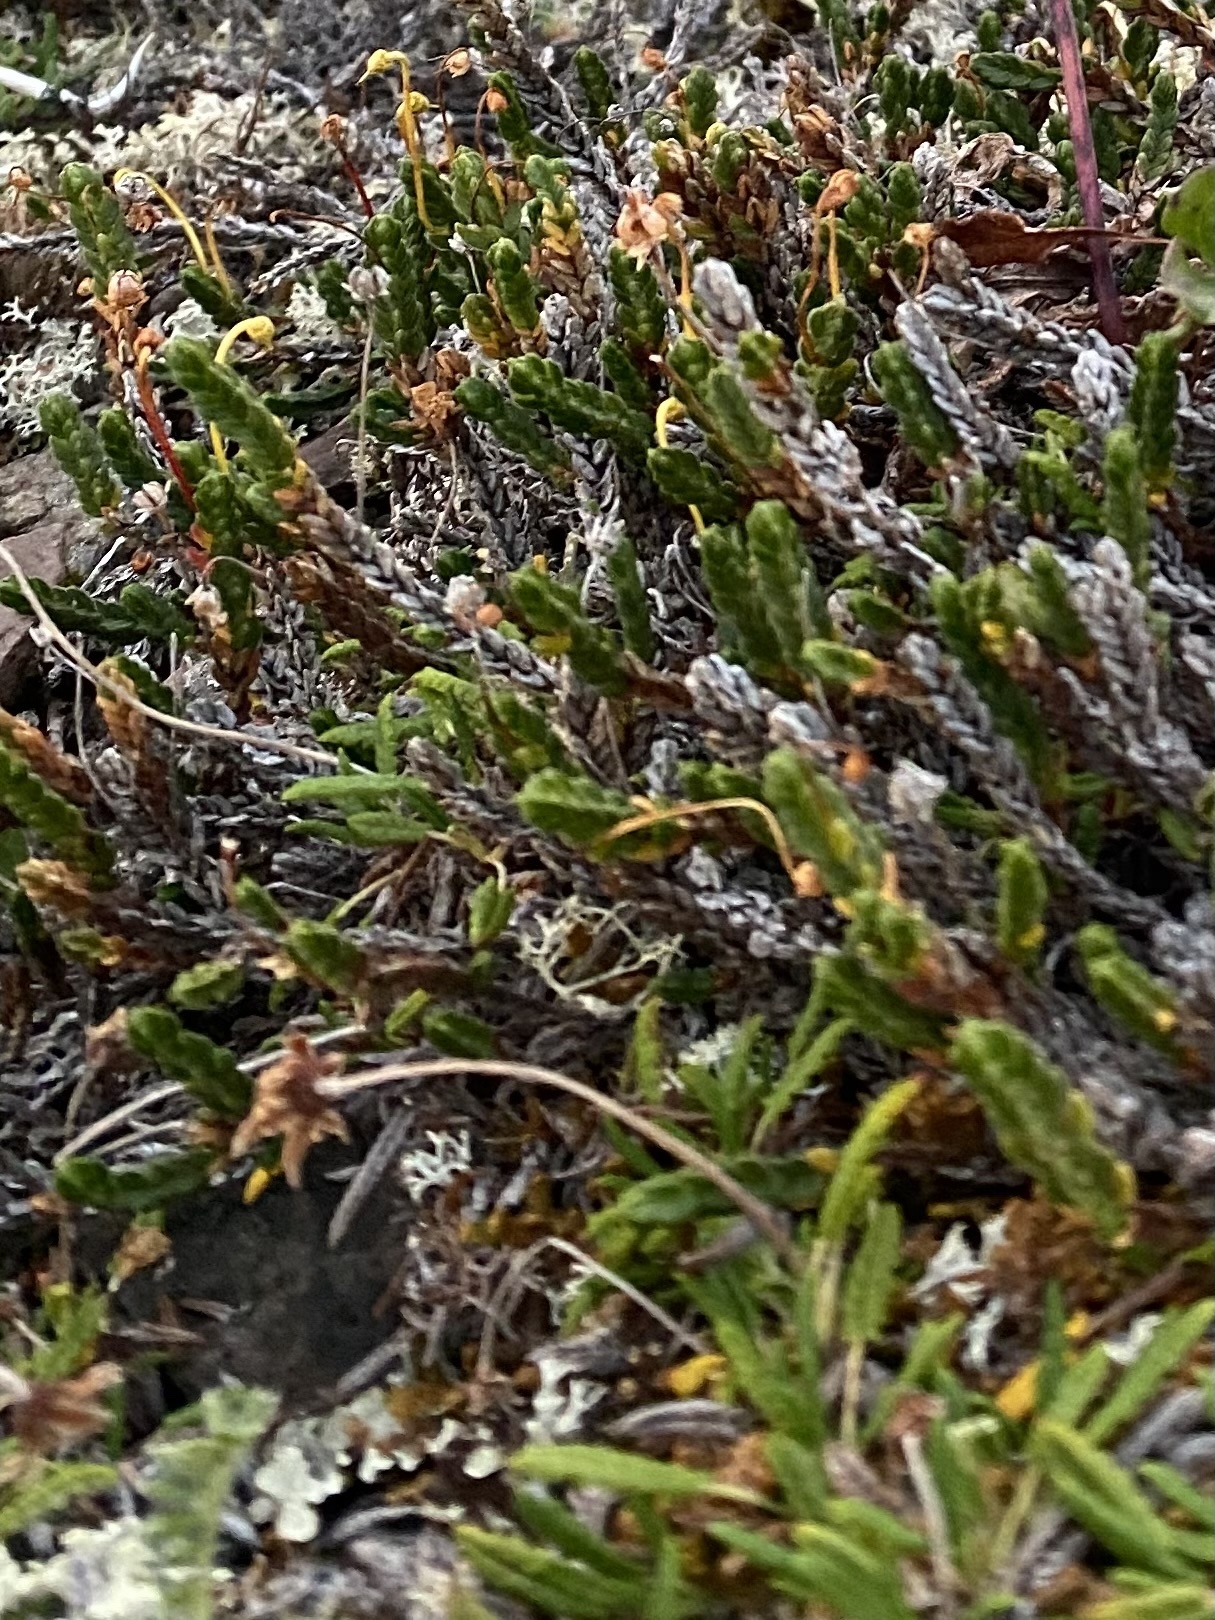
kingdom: Plantae
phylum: Tracheophyta
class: Magnoliopsida
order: Ericales
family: Ericaceae
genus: Cassiope
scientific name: Cassiope tetragona
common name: Arctic bell heather
